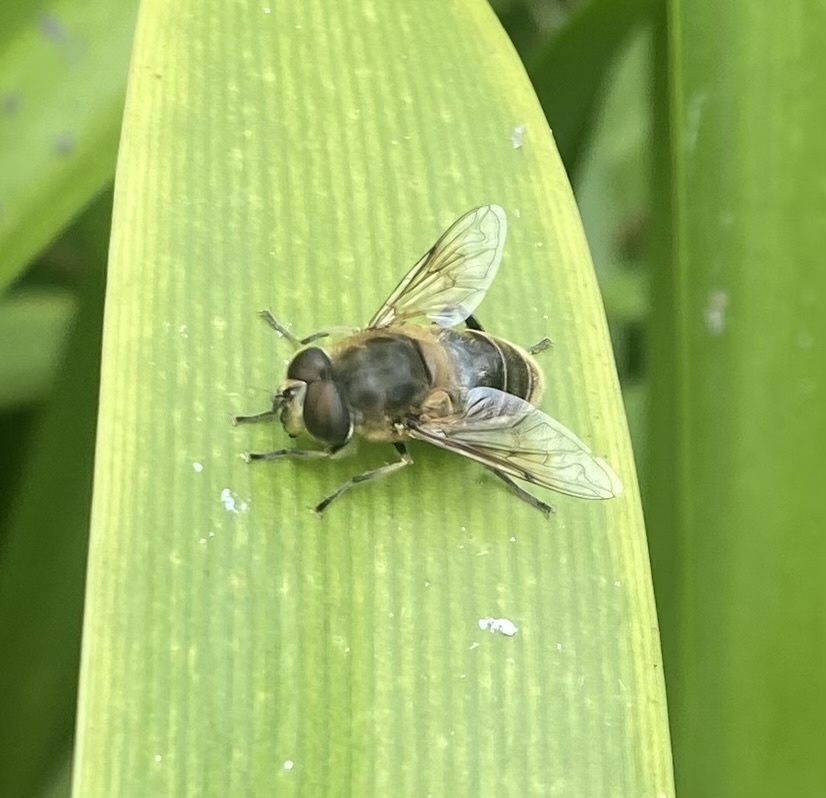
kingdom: Animalia
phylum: Arthropoda
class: Insecta
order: Diptera
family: Syrphidae
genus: Eristalis
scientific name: Eristalis tenax
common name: Drone fly
